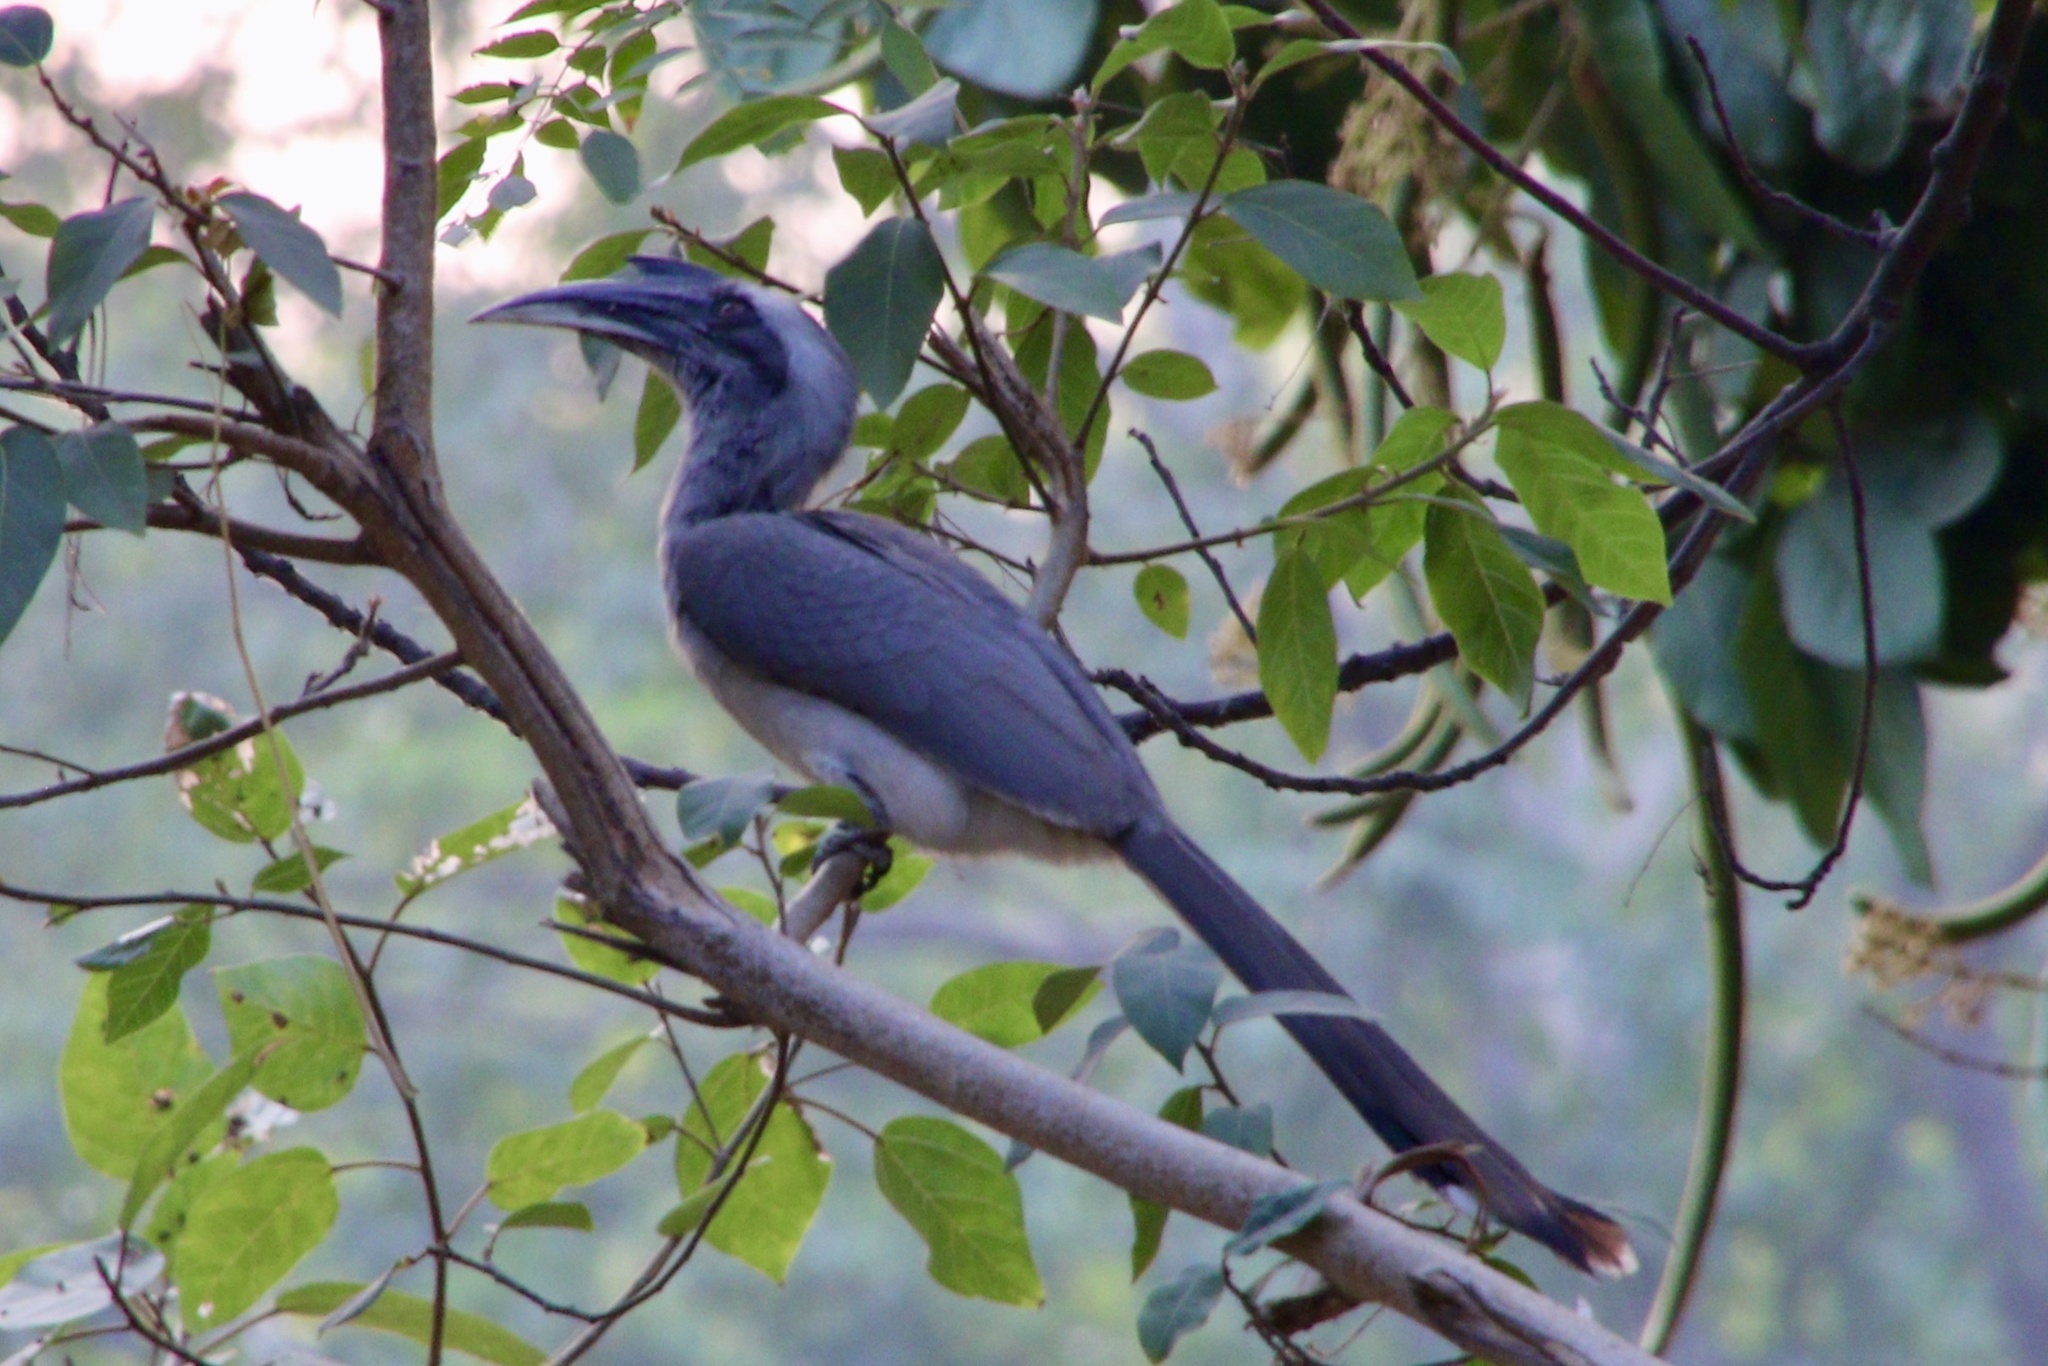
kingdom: Animalia
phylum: Chordata
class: Aves
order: Bucerotiformes
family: Bucerotidae
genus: Ocyceros
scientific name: Ocyceros birostris
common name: Indian grey hornbill
